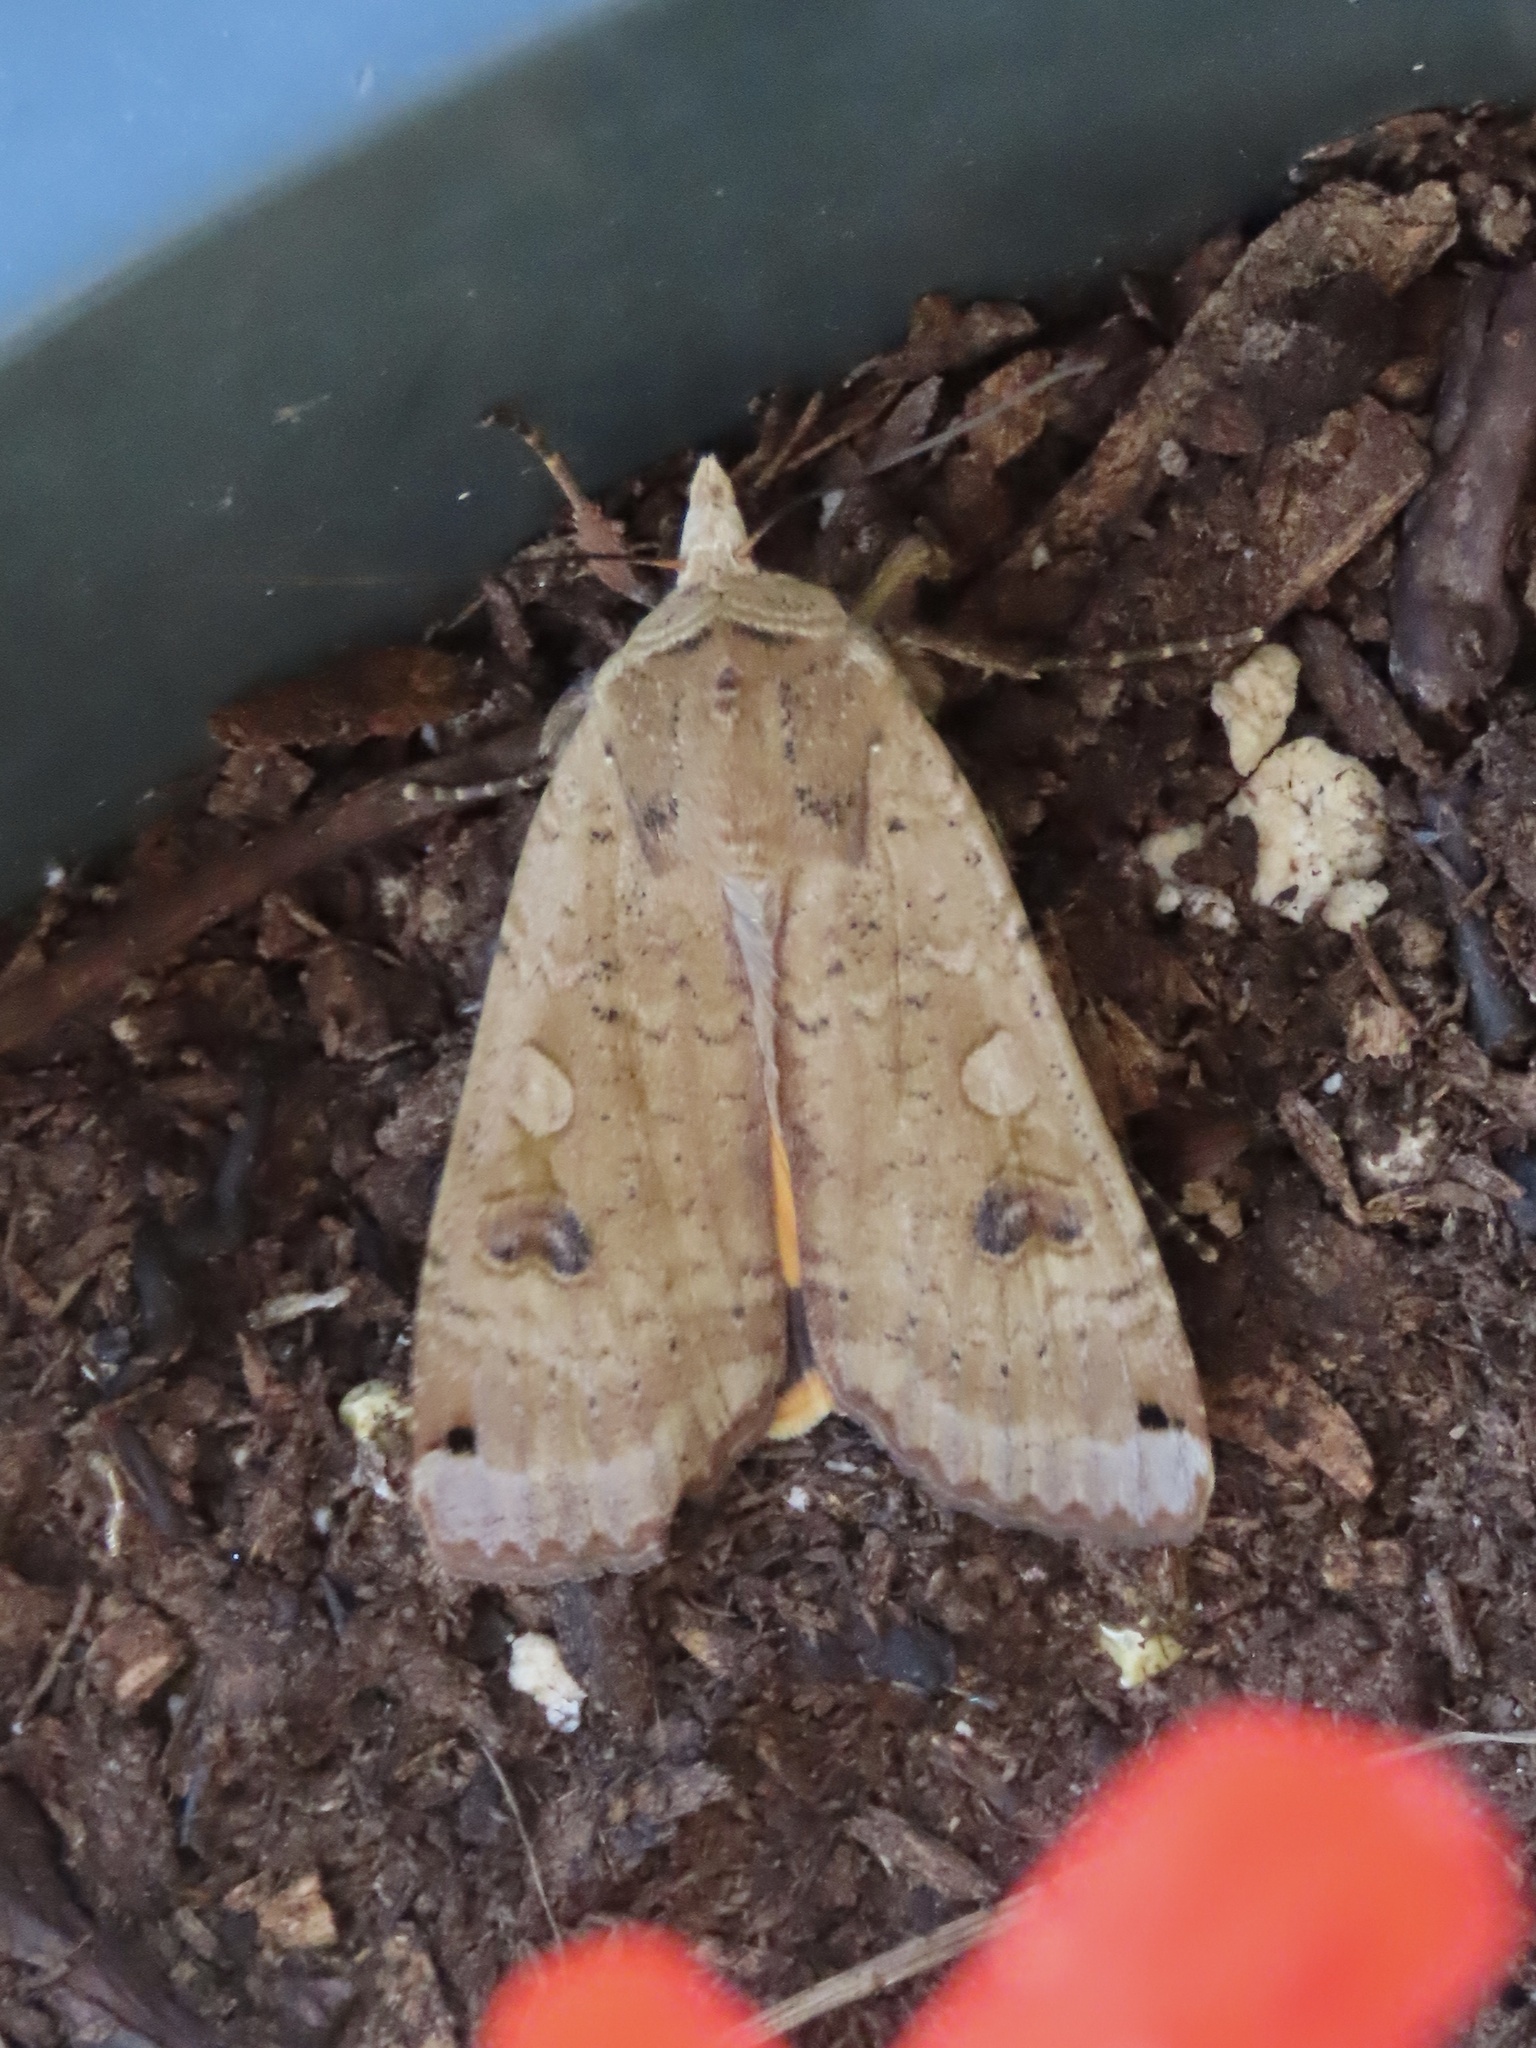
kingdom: Animalia
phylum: Arthropoda
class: Insecta
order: Lepidoptera
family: Noctuidae
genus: Noctua
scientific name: Noctua pronuba
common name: Large yellow underwing
